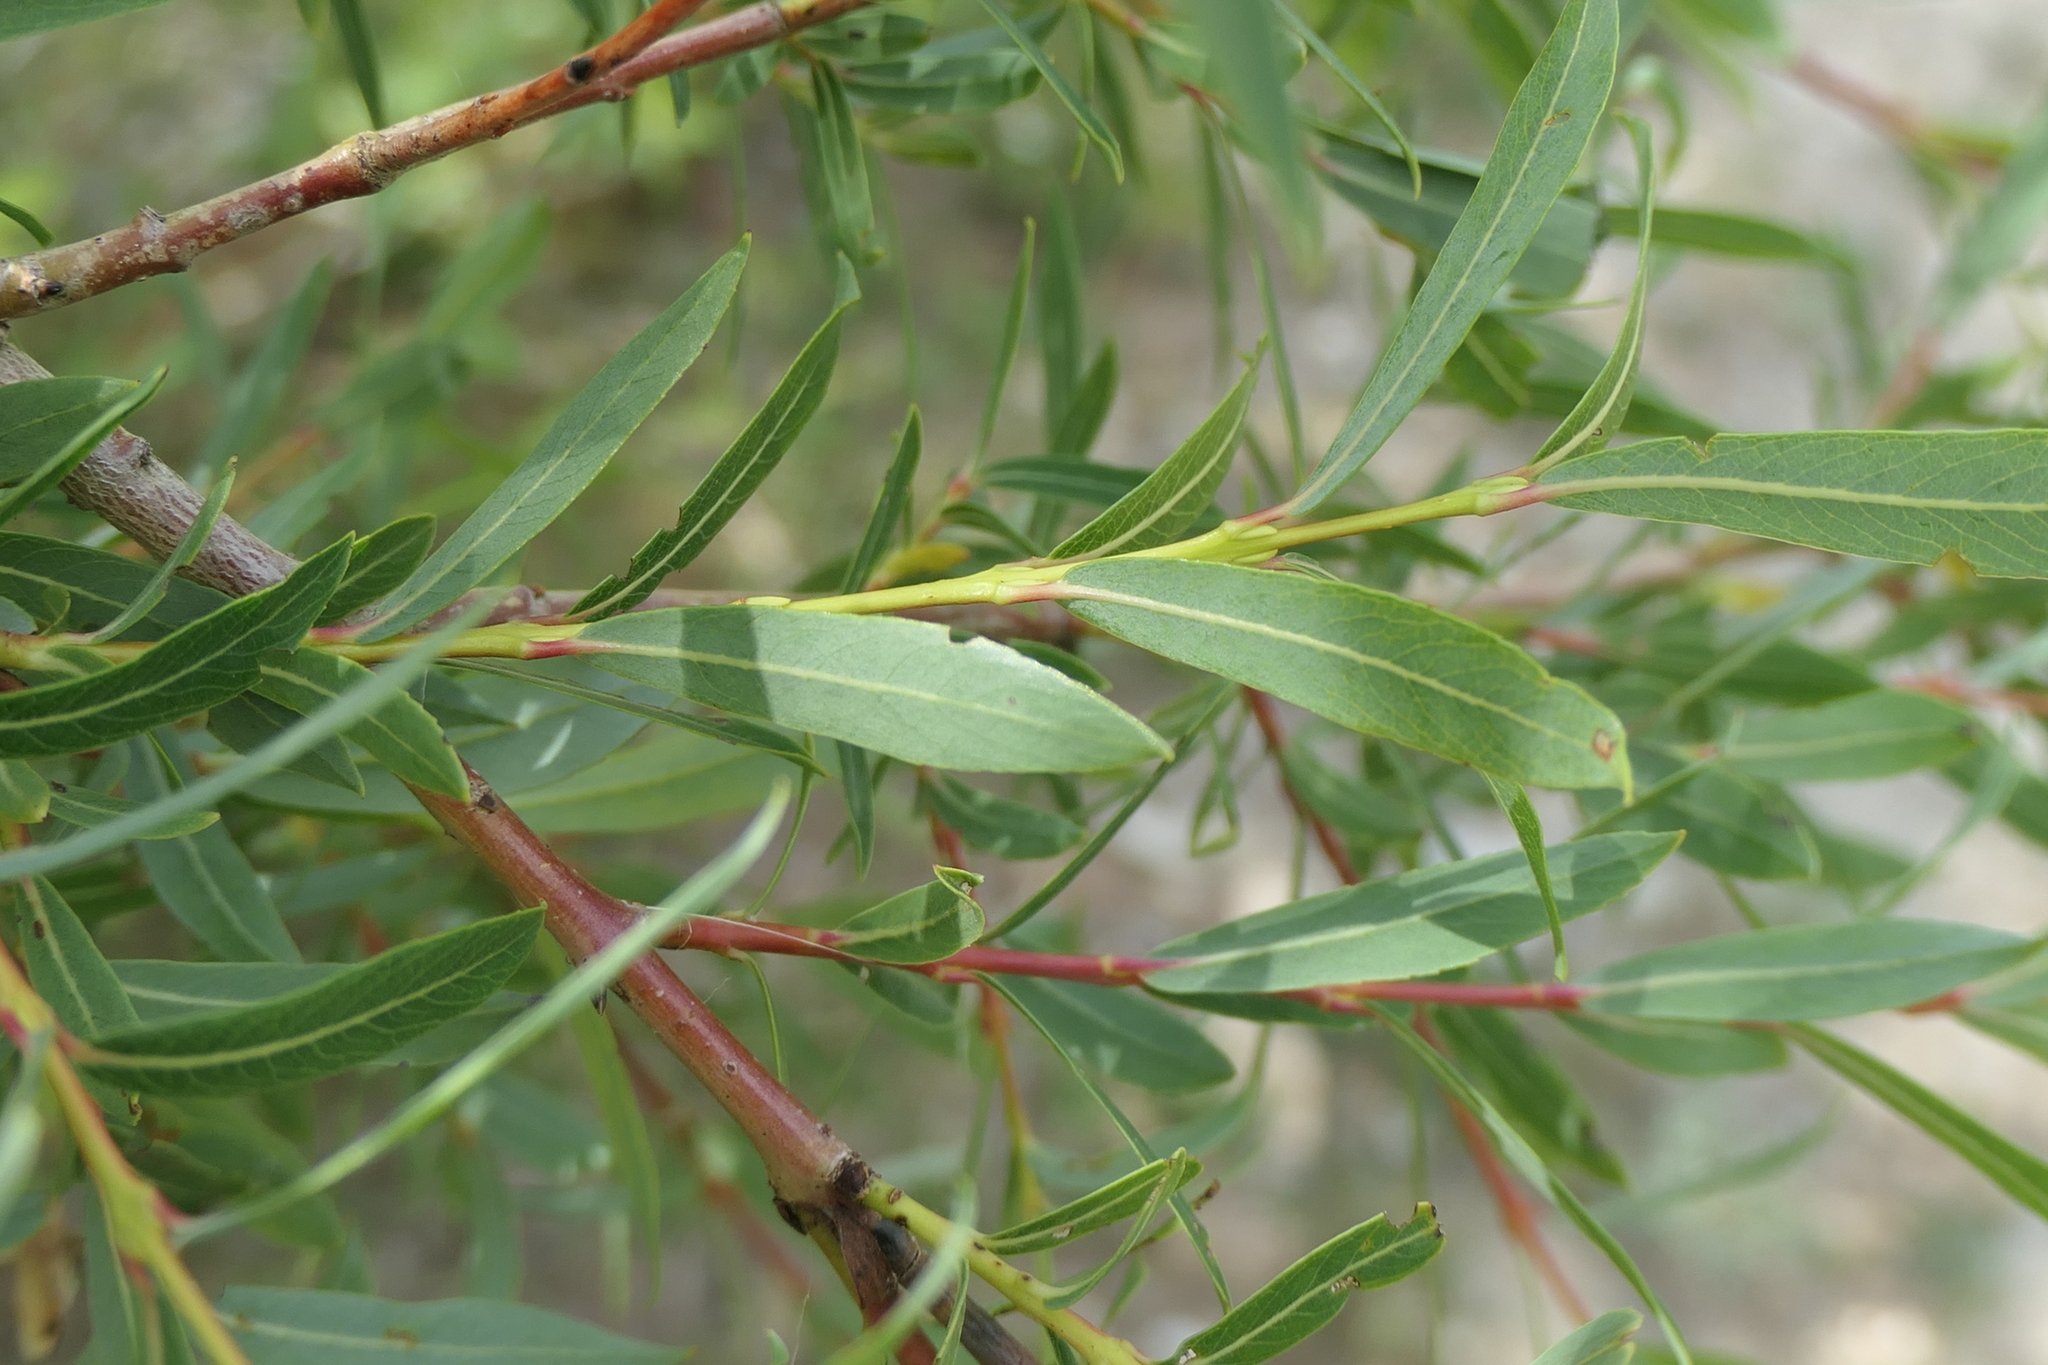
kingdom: Plantae
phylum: Tracheophyta
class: Magnoliopsida
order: Malpighiales
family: Salicaceae
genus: Salix
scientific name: Salix purpurea
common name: Purple willow
